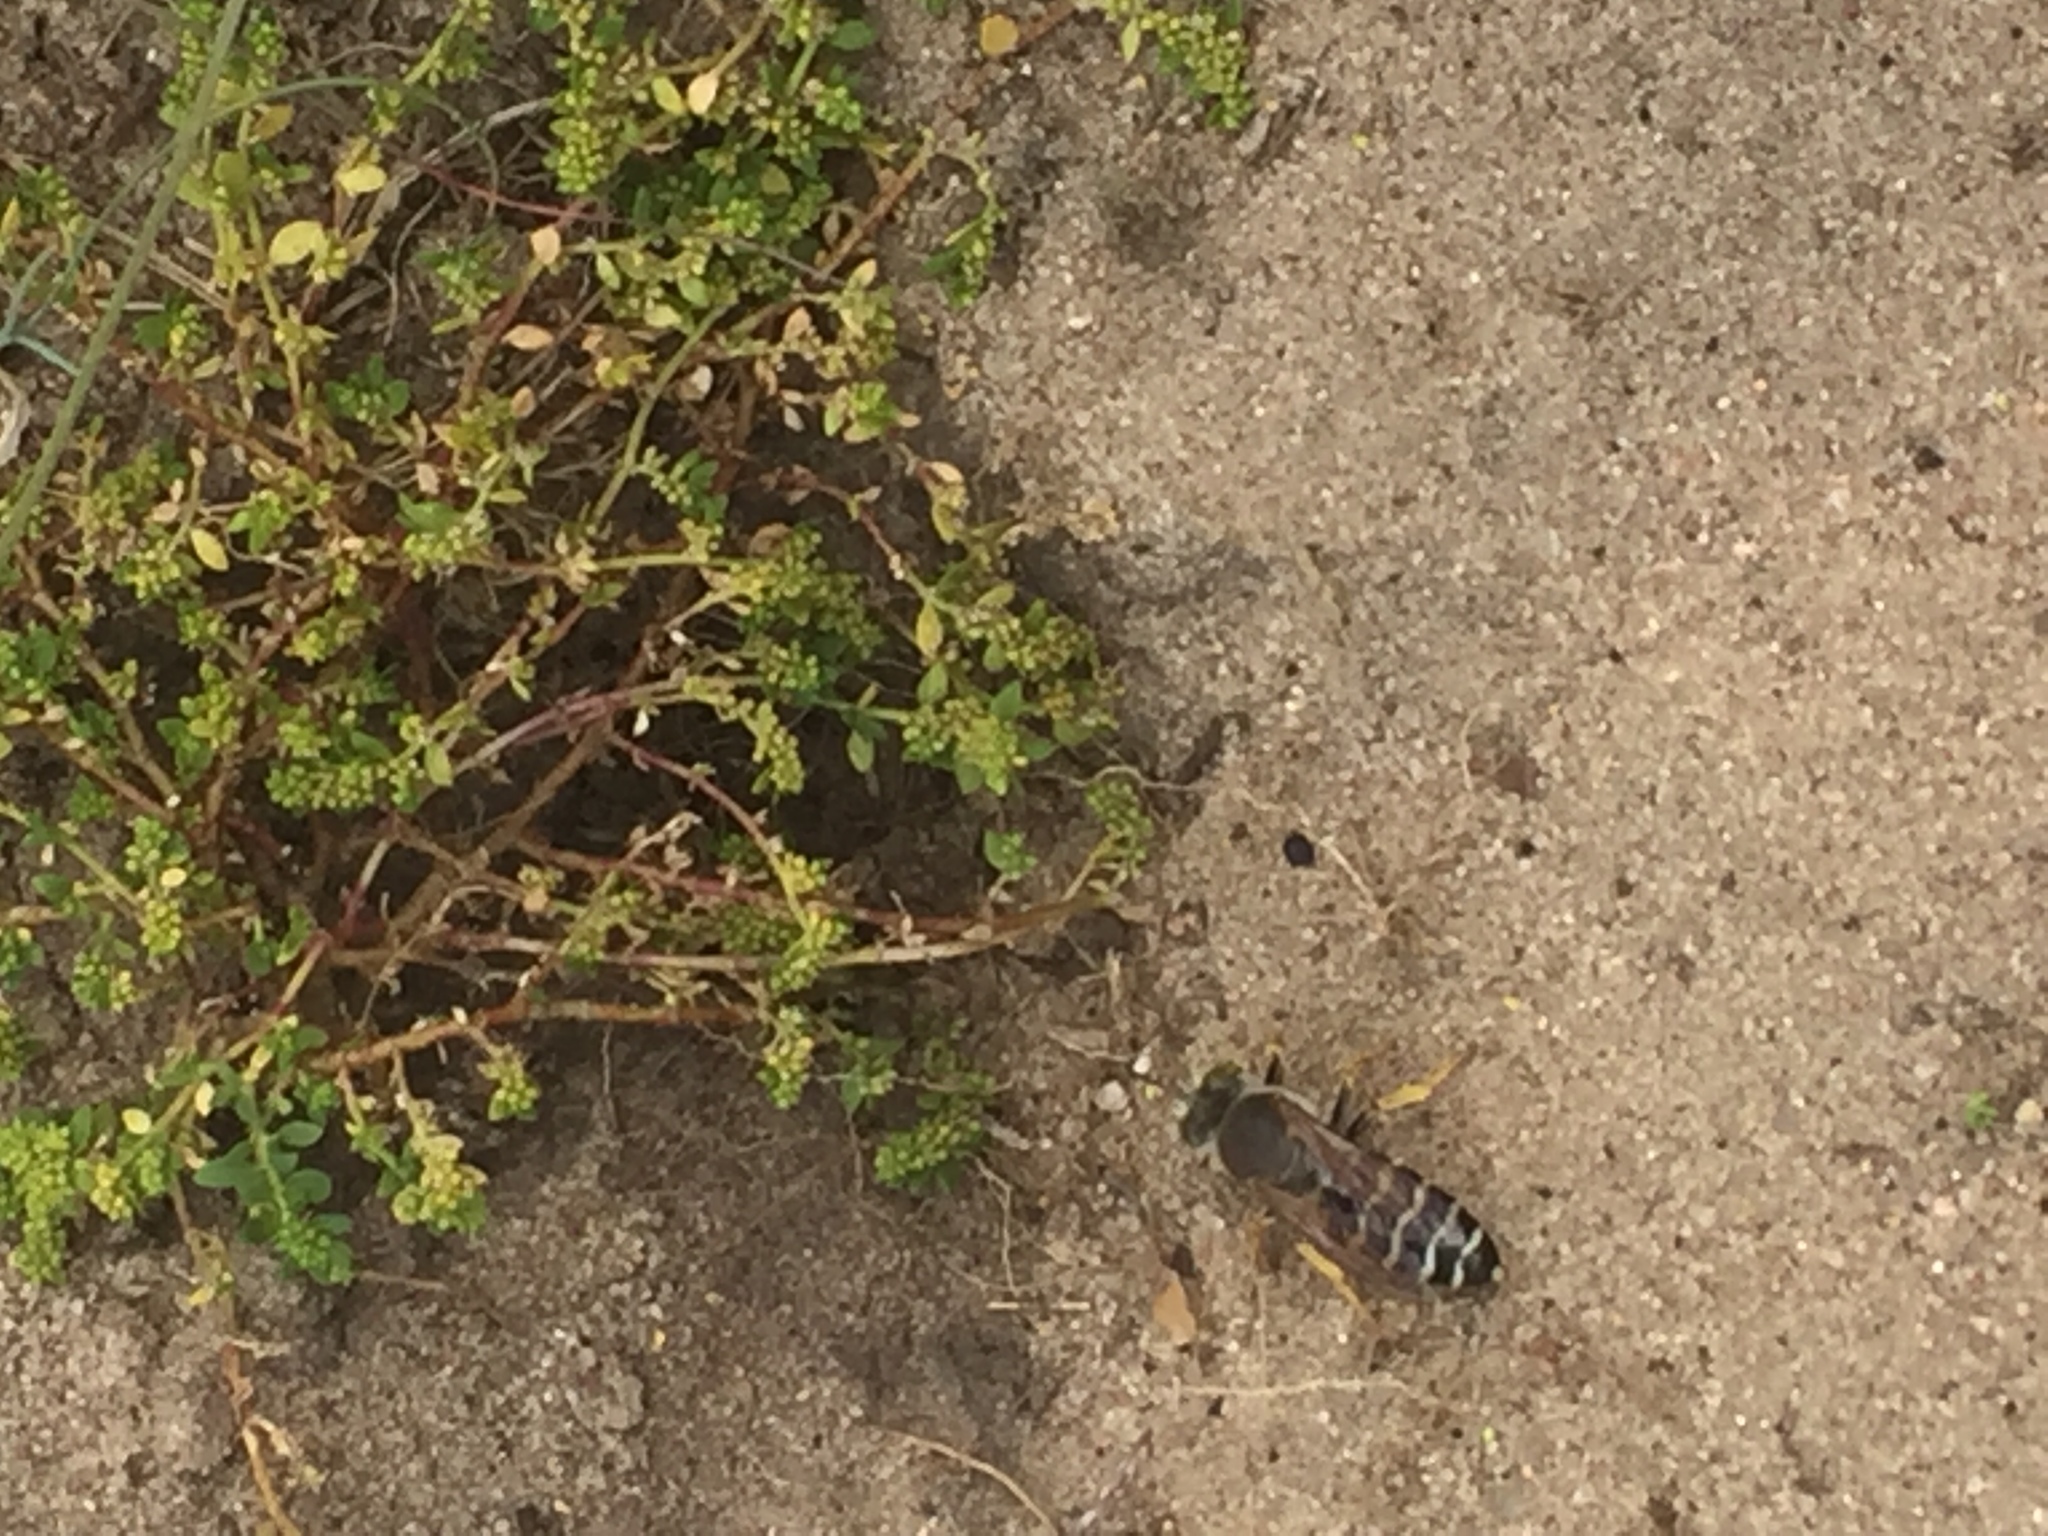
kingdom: Plantae
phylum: Tracheophyta
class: Magnoliopsida
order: Caryophyllales
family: Caryophyllaceae
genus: Herniaria
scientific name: Herniaria glabra
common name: Smooth rupturewort
